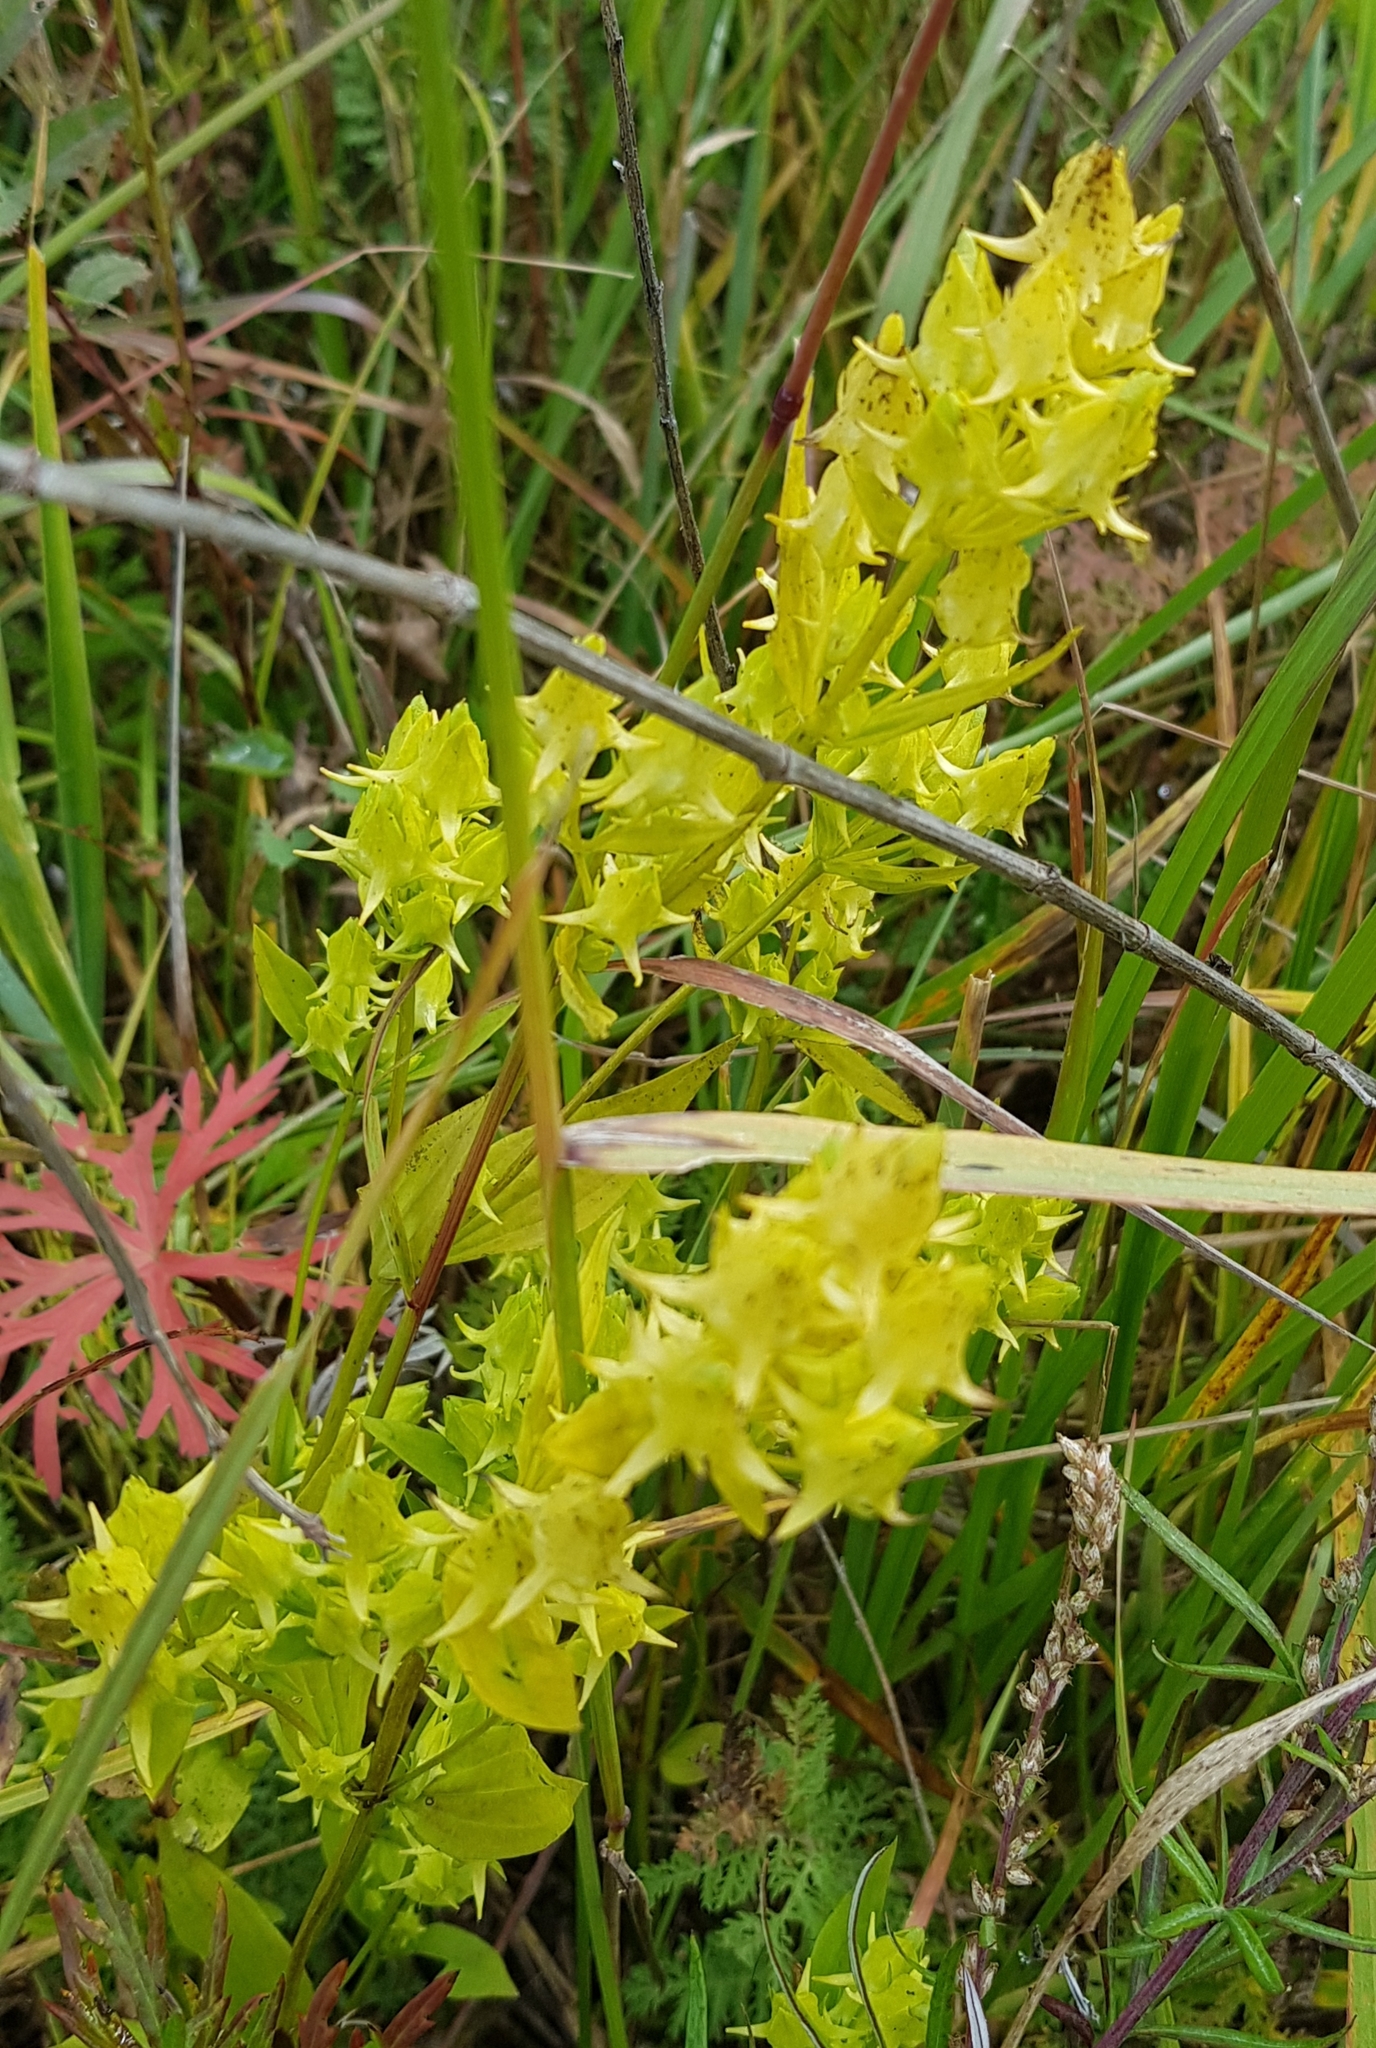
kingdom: Plantae
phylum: Tracheophyta
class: Magnoliopsida
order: Gentianales
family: Gentianaceae
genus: Halenia
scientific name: Halenia corniculata
